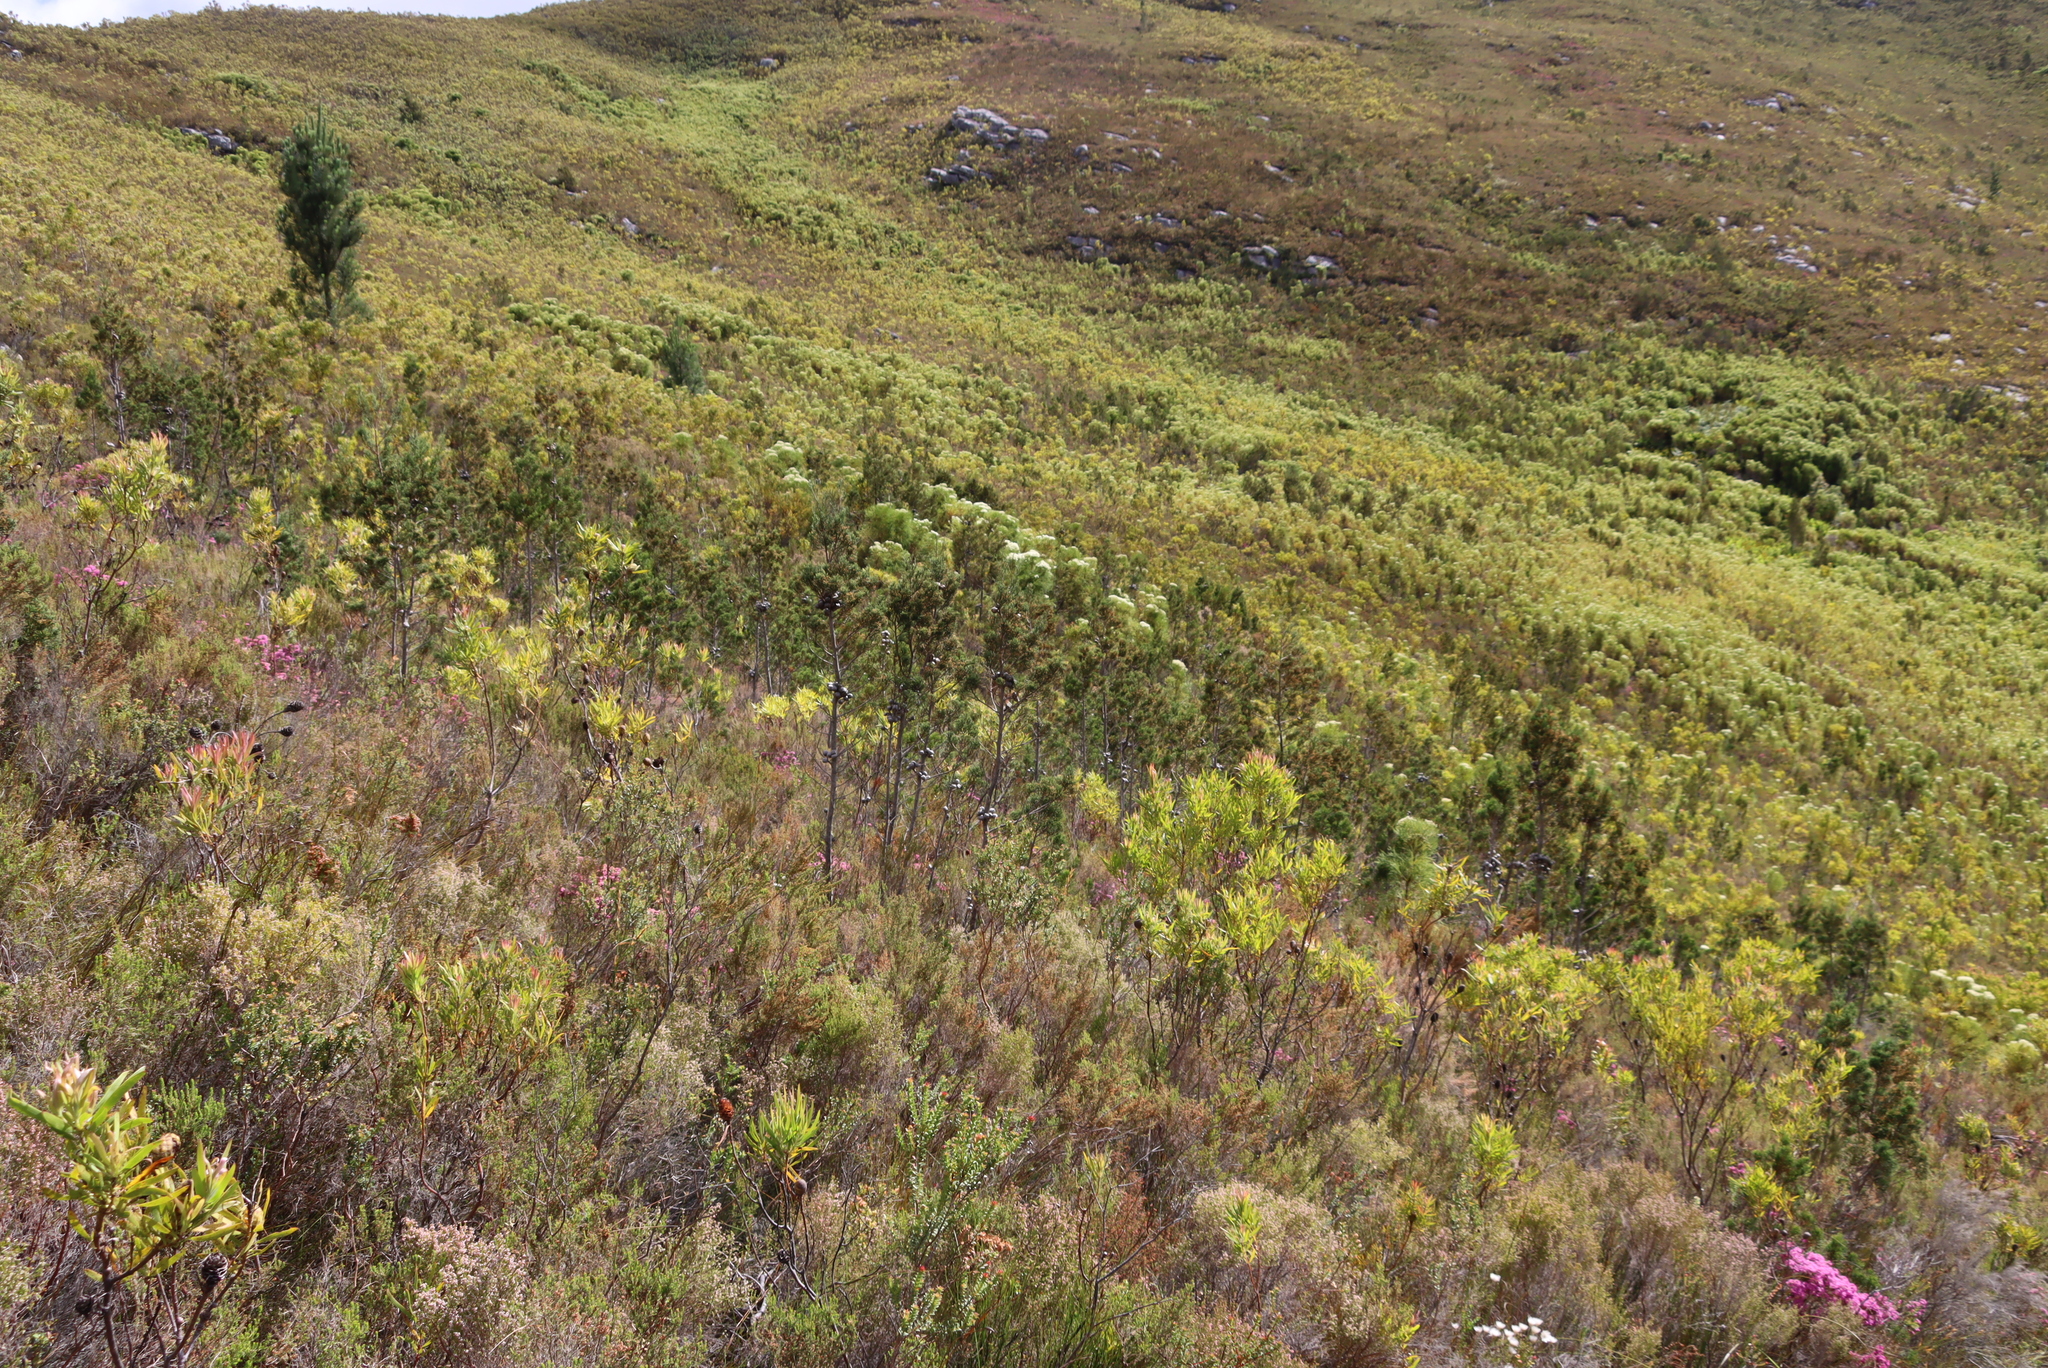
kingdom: Plantae
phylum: Tracheophyta
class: Pinopsida
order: Pinales
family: Cupressaceae
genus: Widdringtonia
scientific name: Widdringtonia nodiflora
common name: Cape cypress
